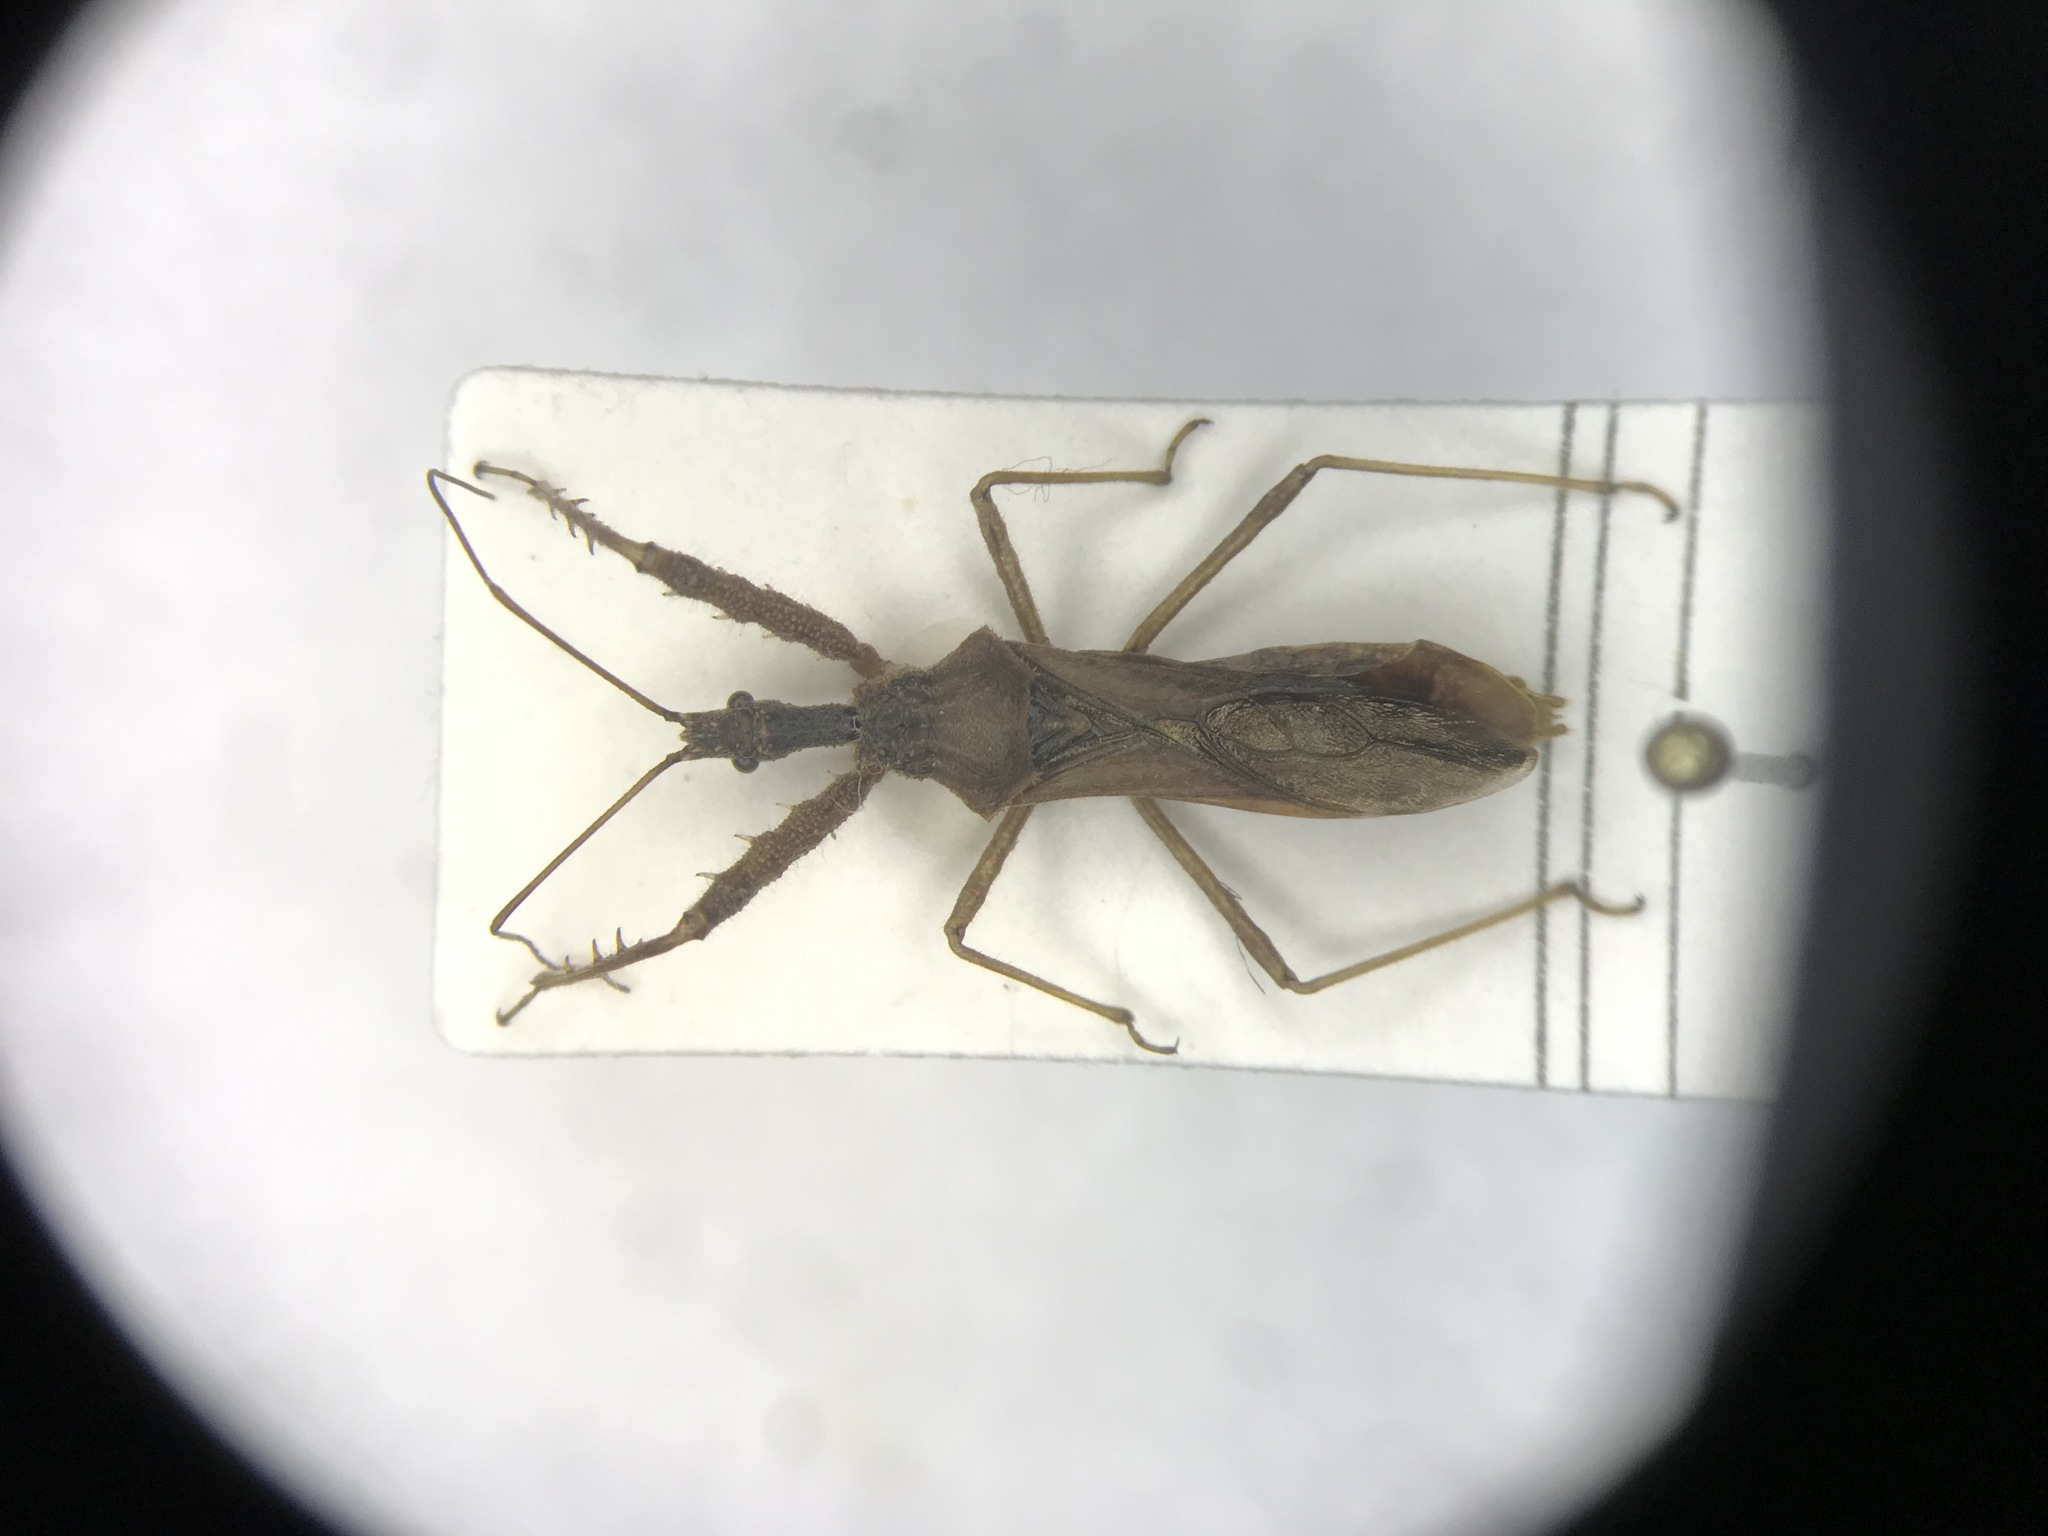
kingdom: Animalia
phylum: Arthropoda
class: Insecta
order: Hemiptera
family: Reduviidae
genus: Sinea
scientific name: Sinea diadema
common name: Spined assassin bug
